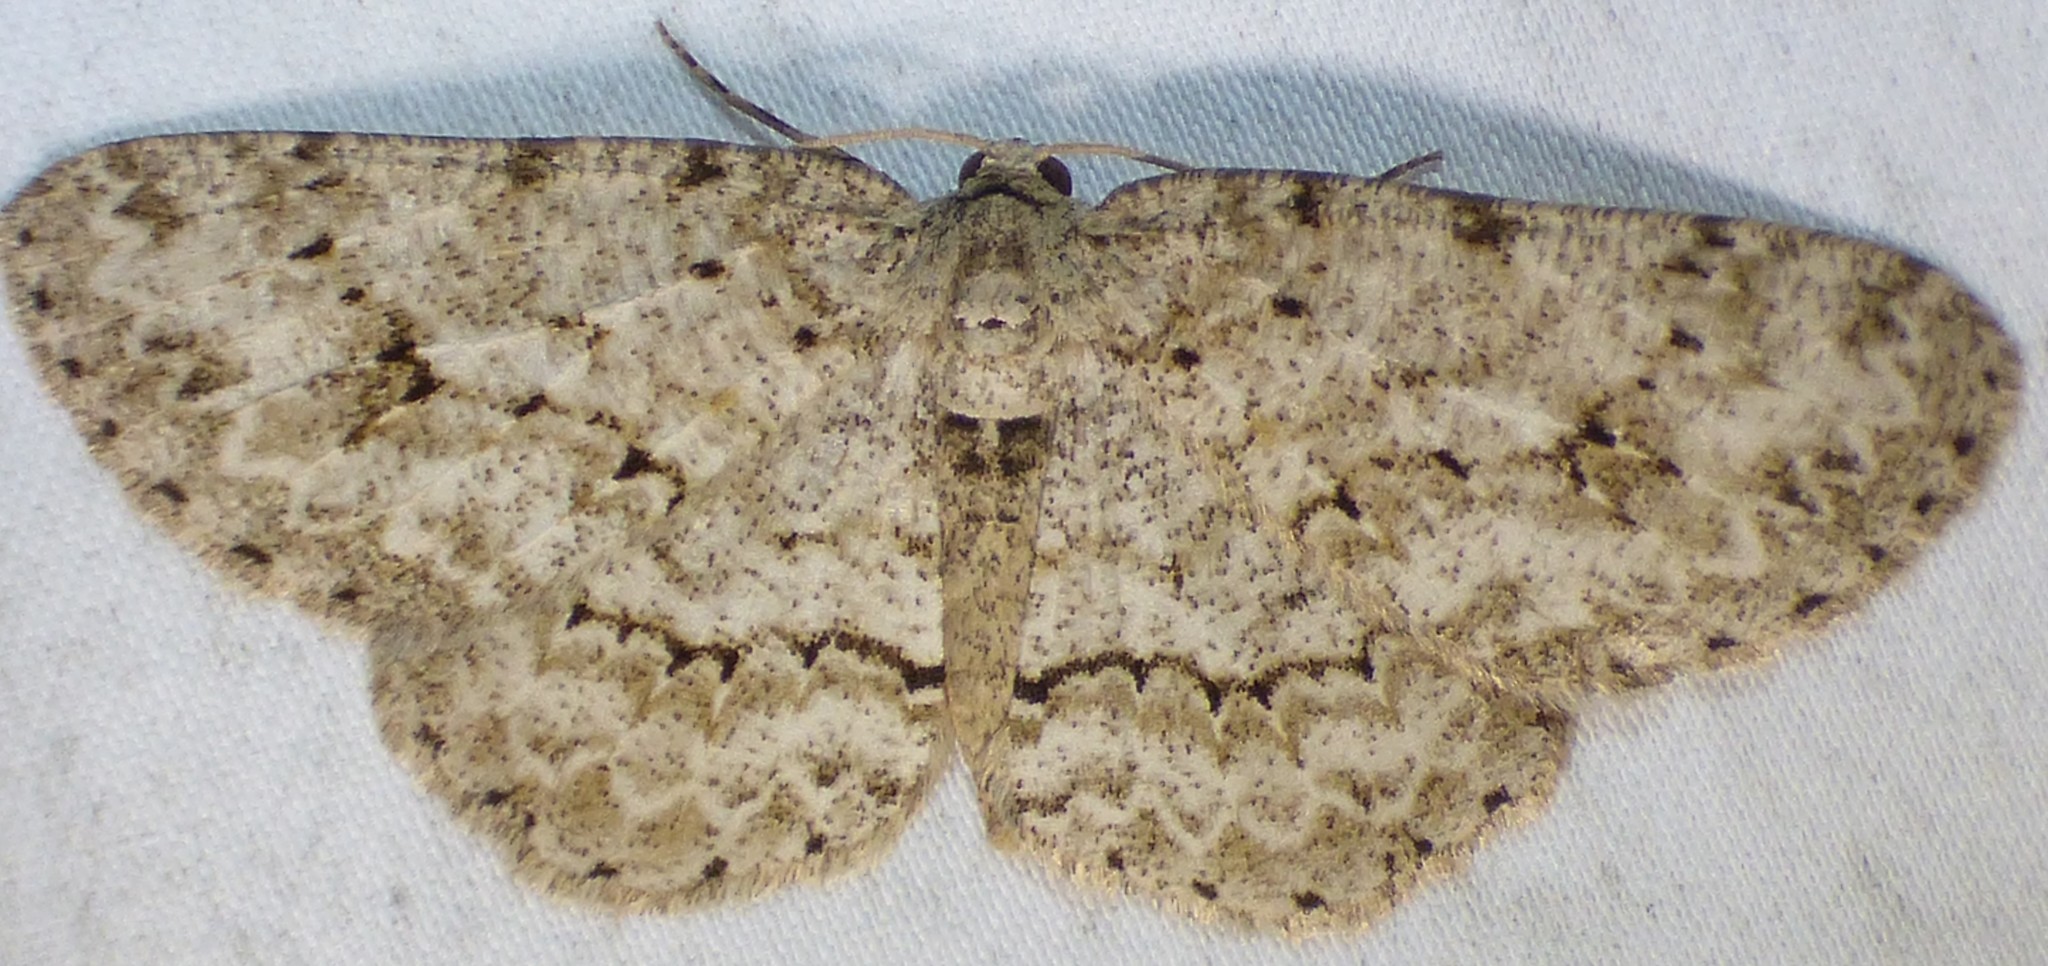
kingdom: Animalia
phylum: Arthropoda
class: Insecta
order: Lepidoptera
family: Geometridae
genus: Ectropis
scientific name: Ectropis crepuscularia
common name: Engrailed
